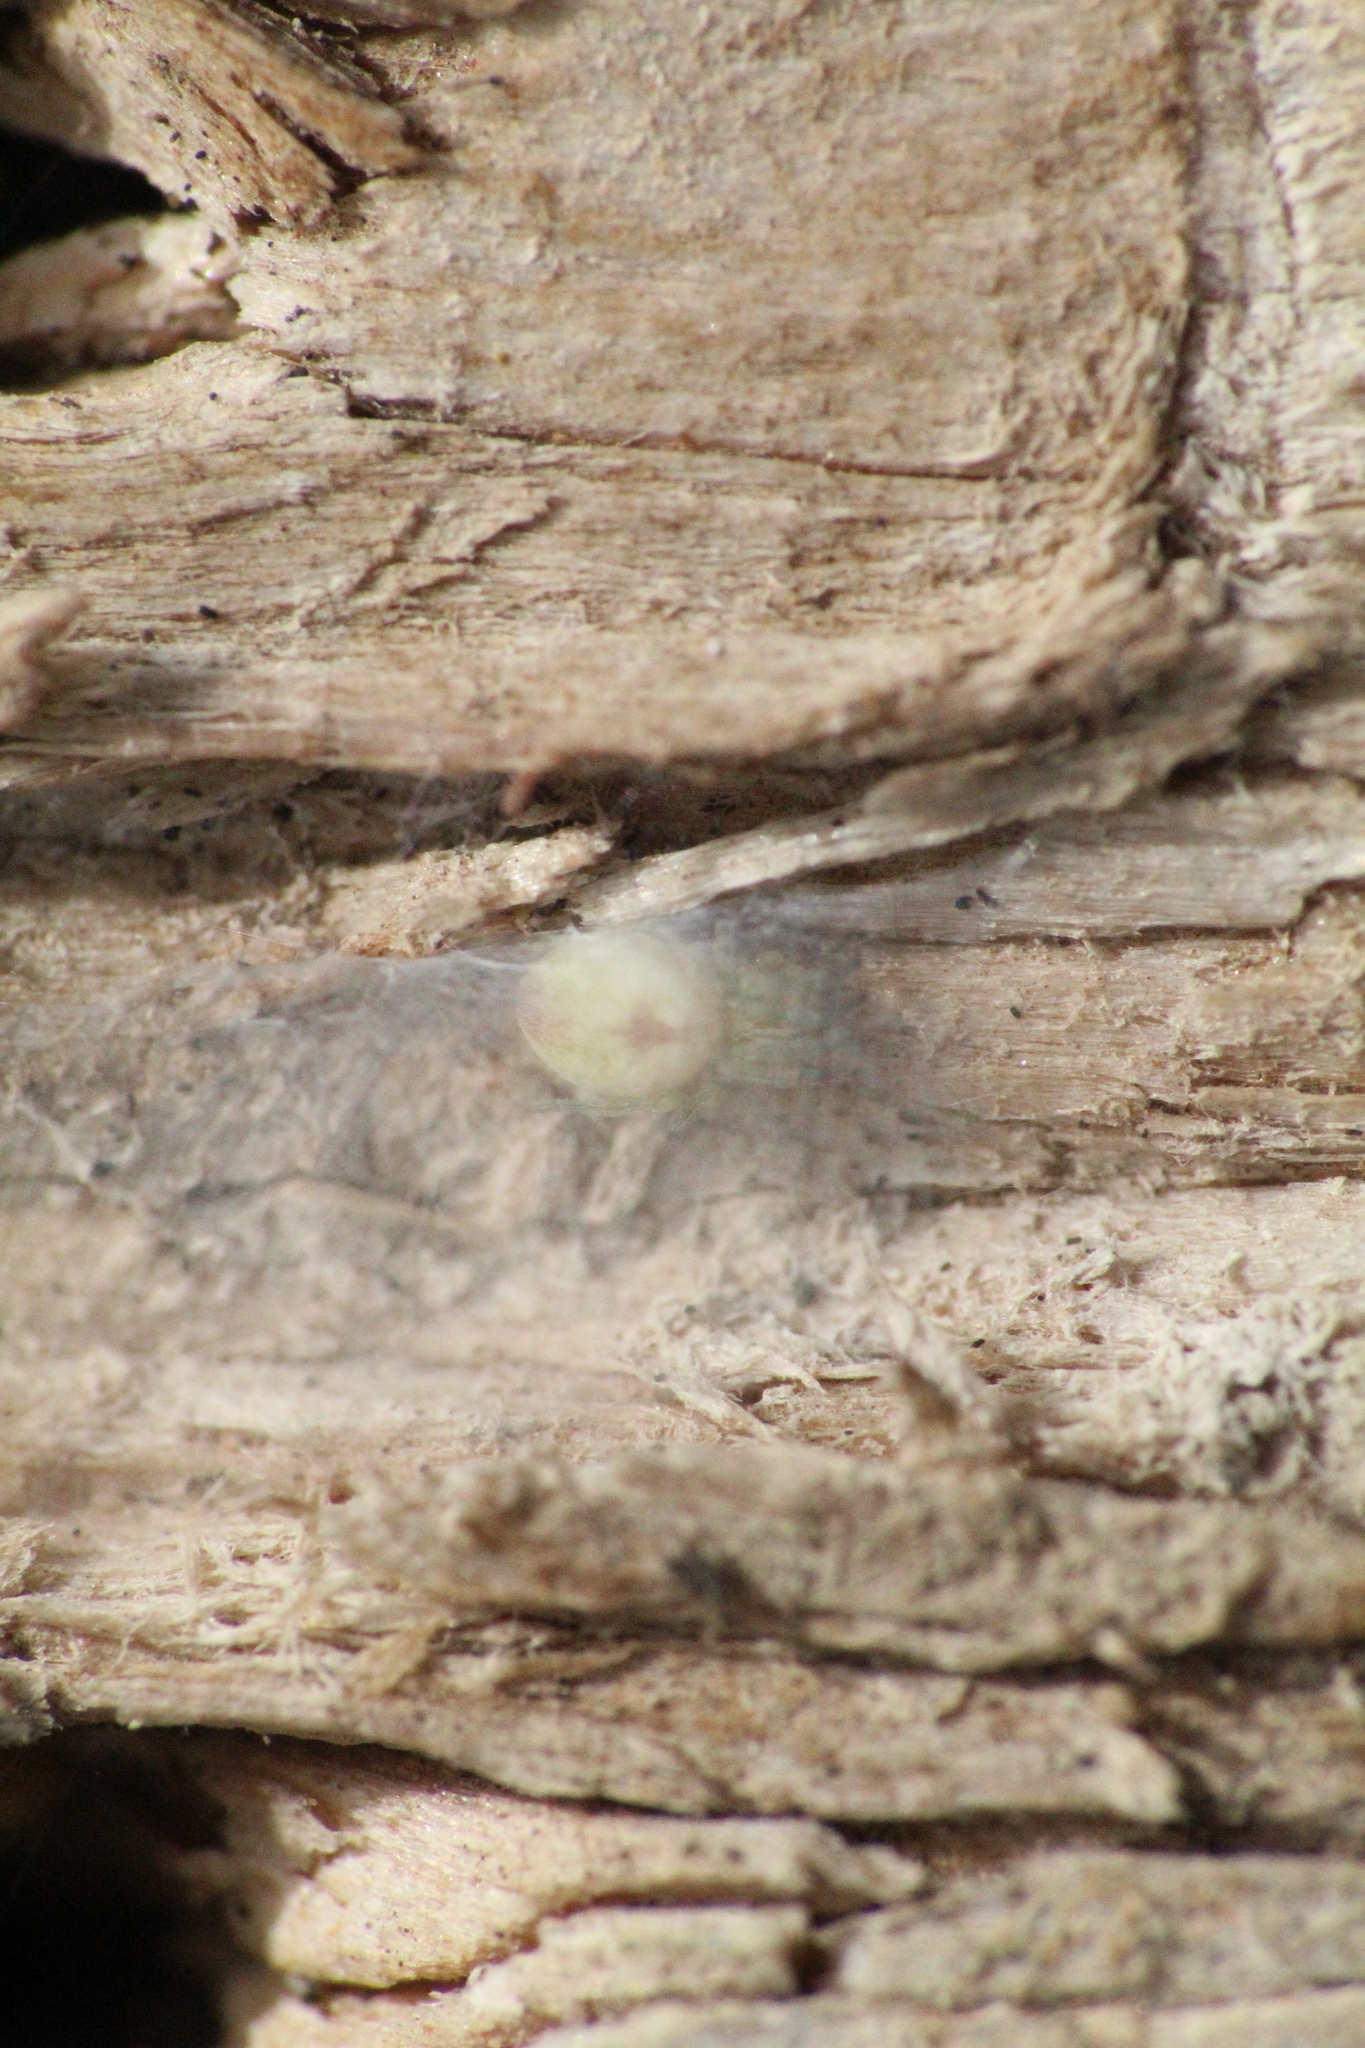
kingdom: Animalia
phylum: Arthropoda
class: Arachnida
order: Araneae
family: Dictynidae
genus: Nigma
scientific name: Nigma puella
